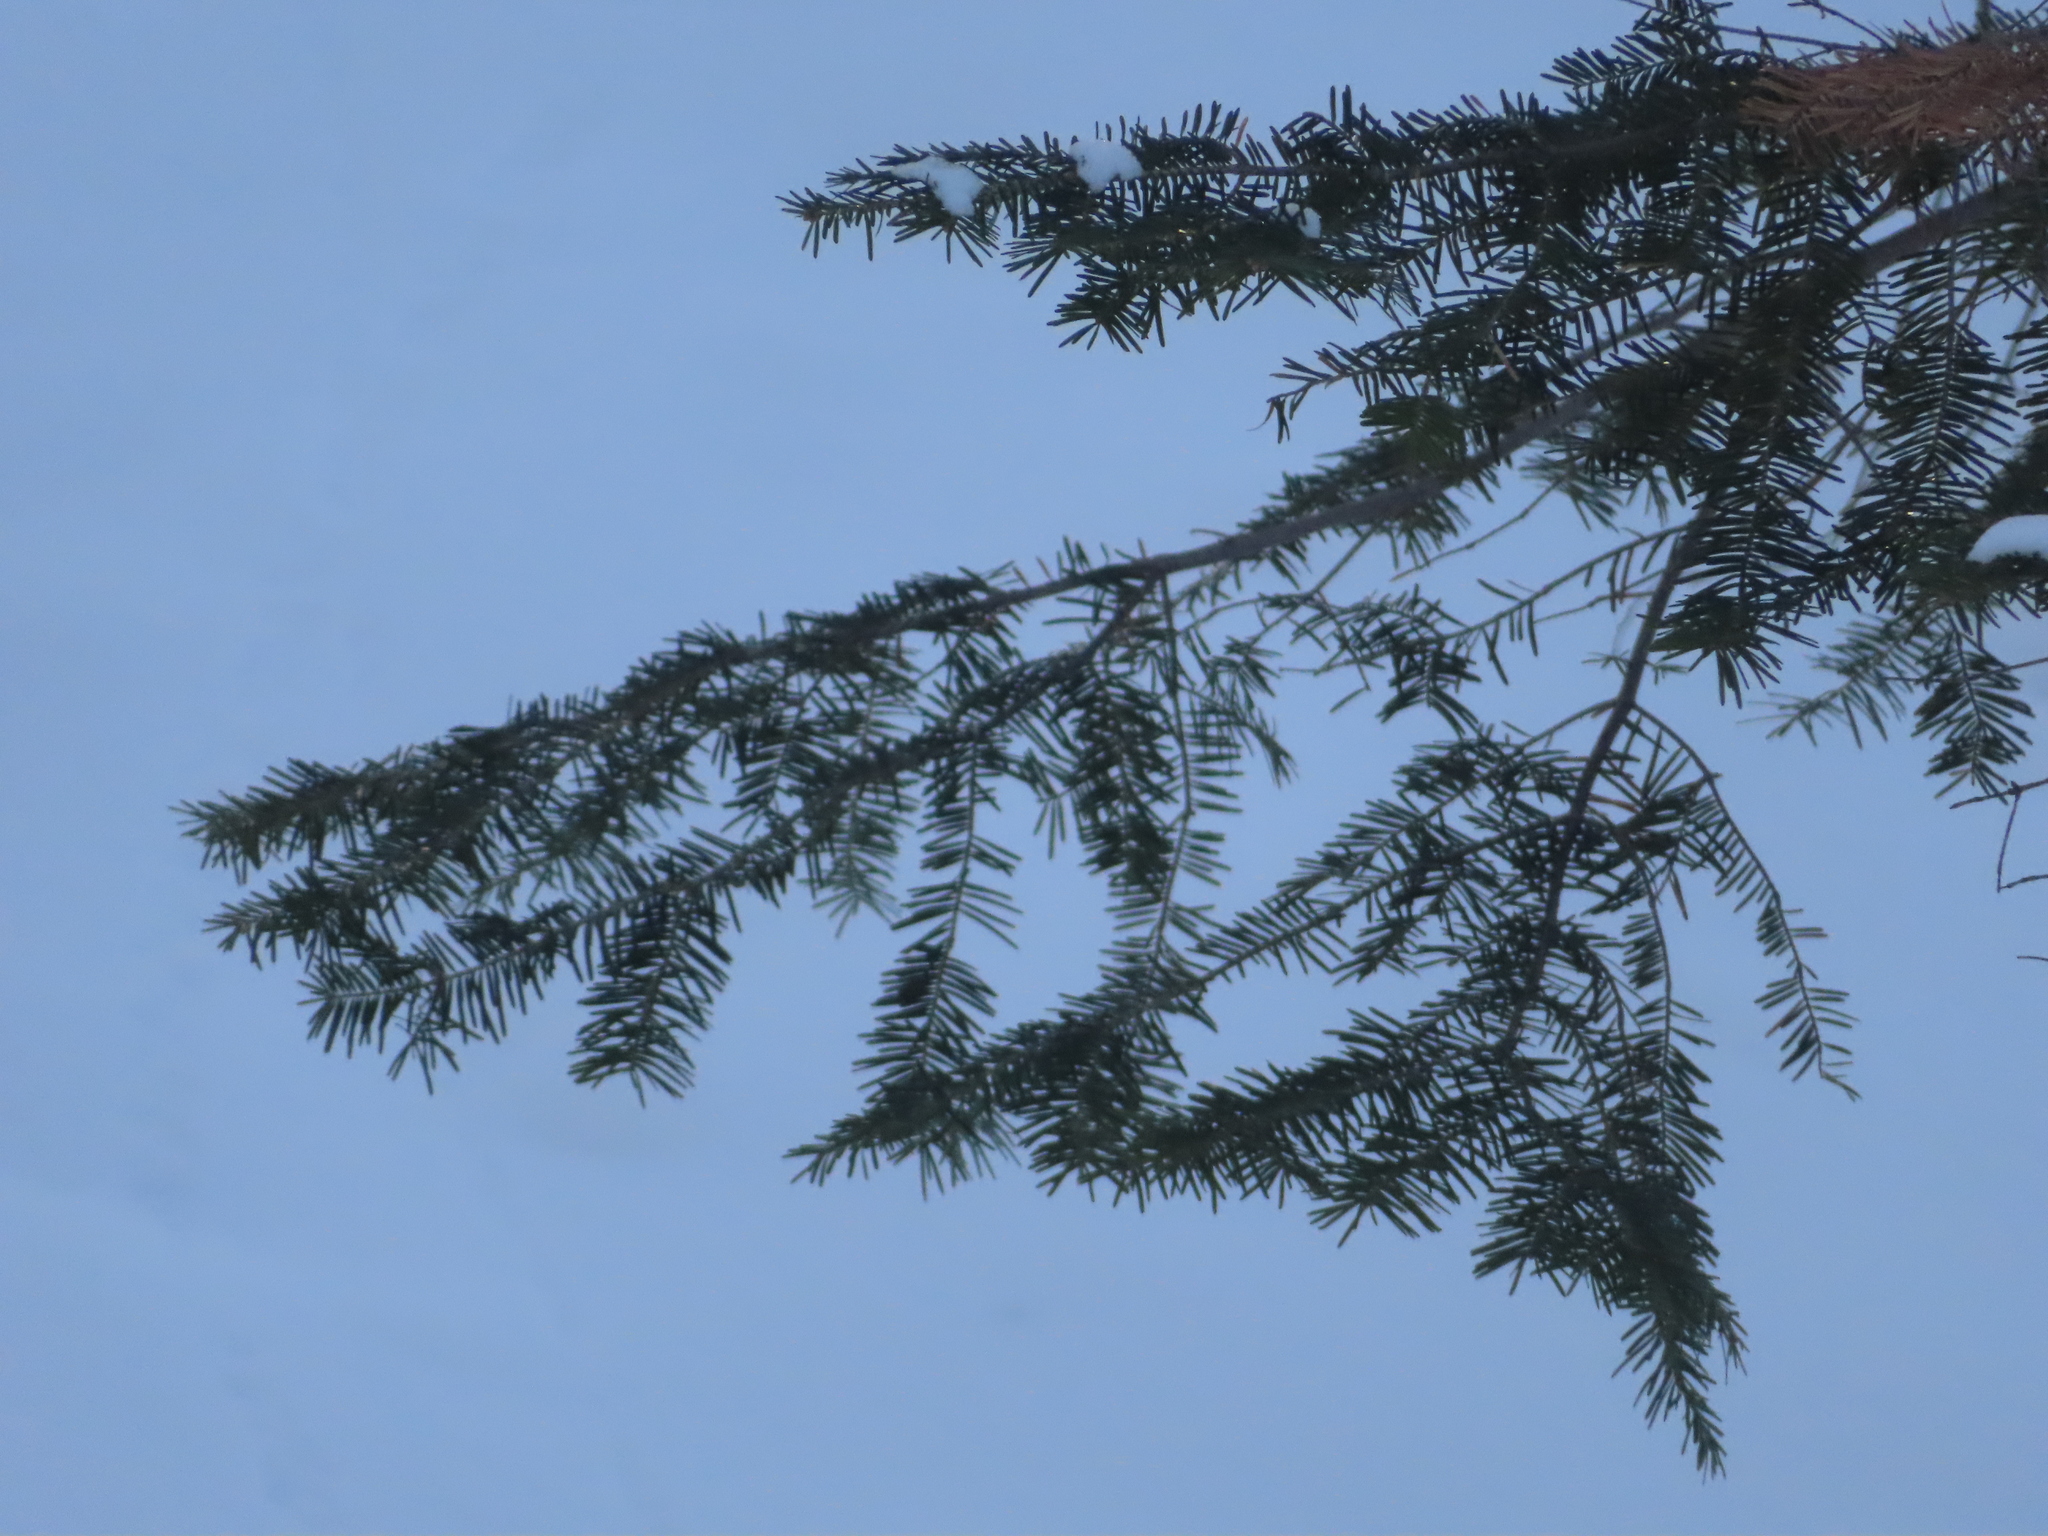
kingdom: Plantae
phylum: Tracheophyta
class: Pinopsida
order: Pinales
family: Pinaceae
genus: Abies
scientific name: Abies balsamea
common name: Balsam fir
